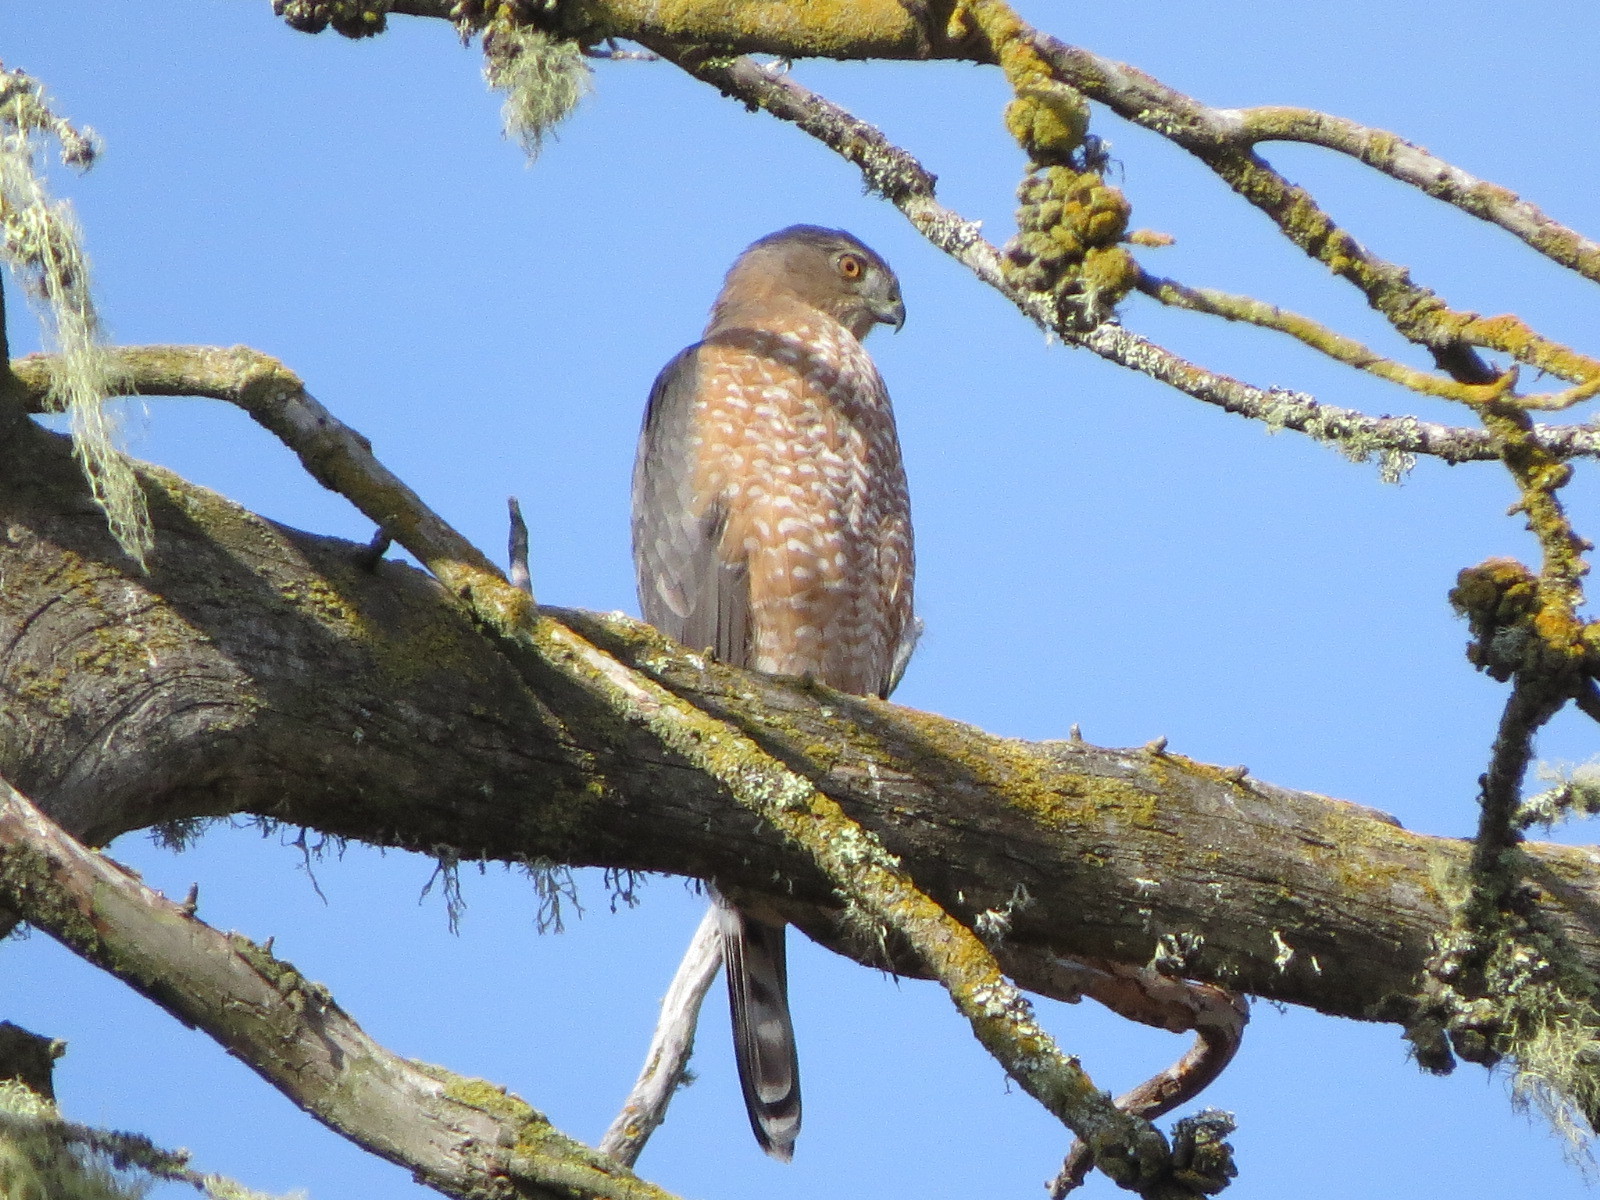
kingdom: Animalia
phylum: Chordata
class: Aves
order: Accipitriformes
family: Accipitridae
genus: Accipiter
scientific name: Accipiter cooperii
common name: Cooper's hawk
